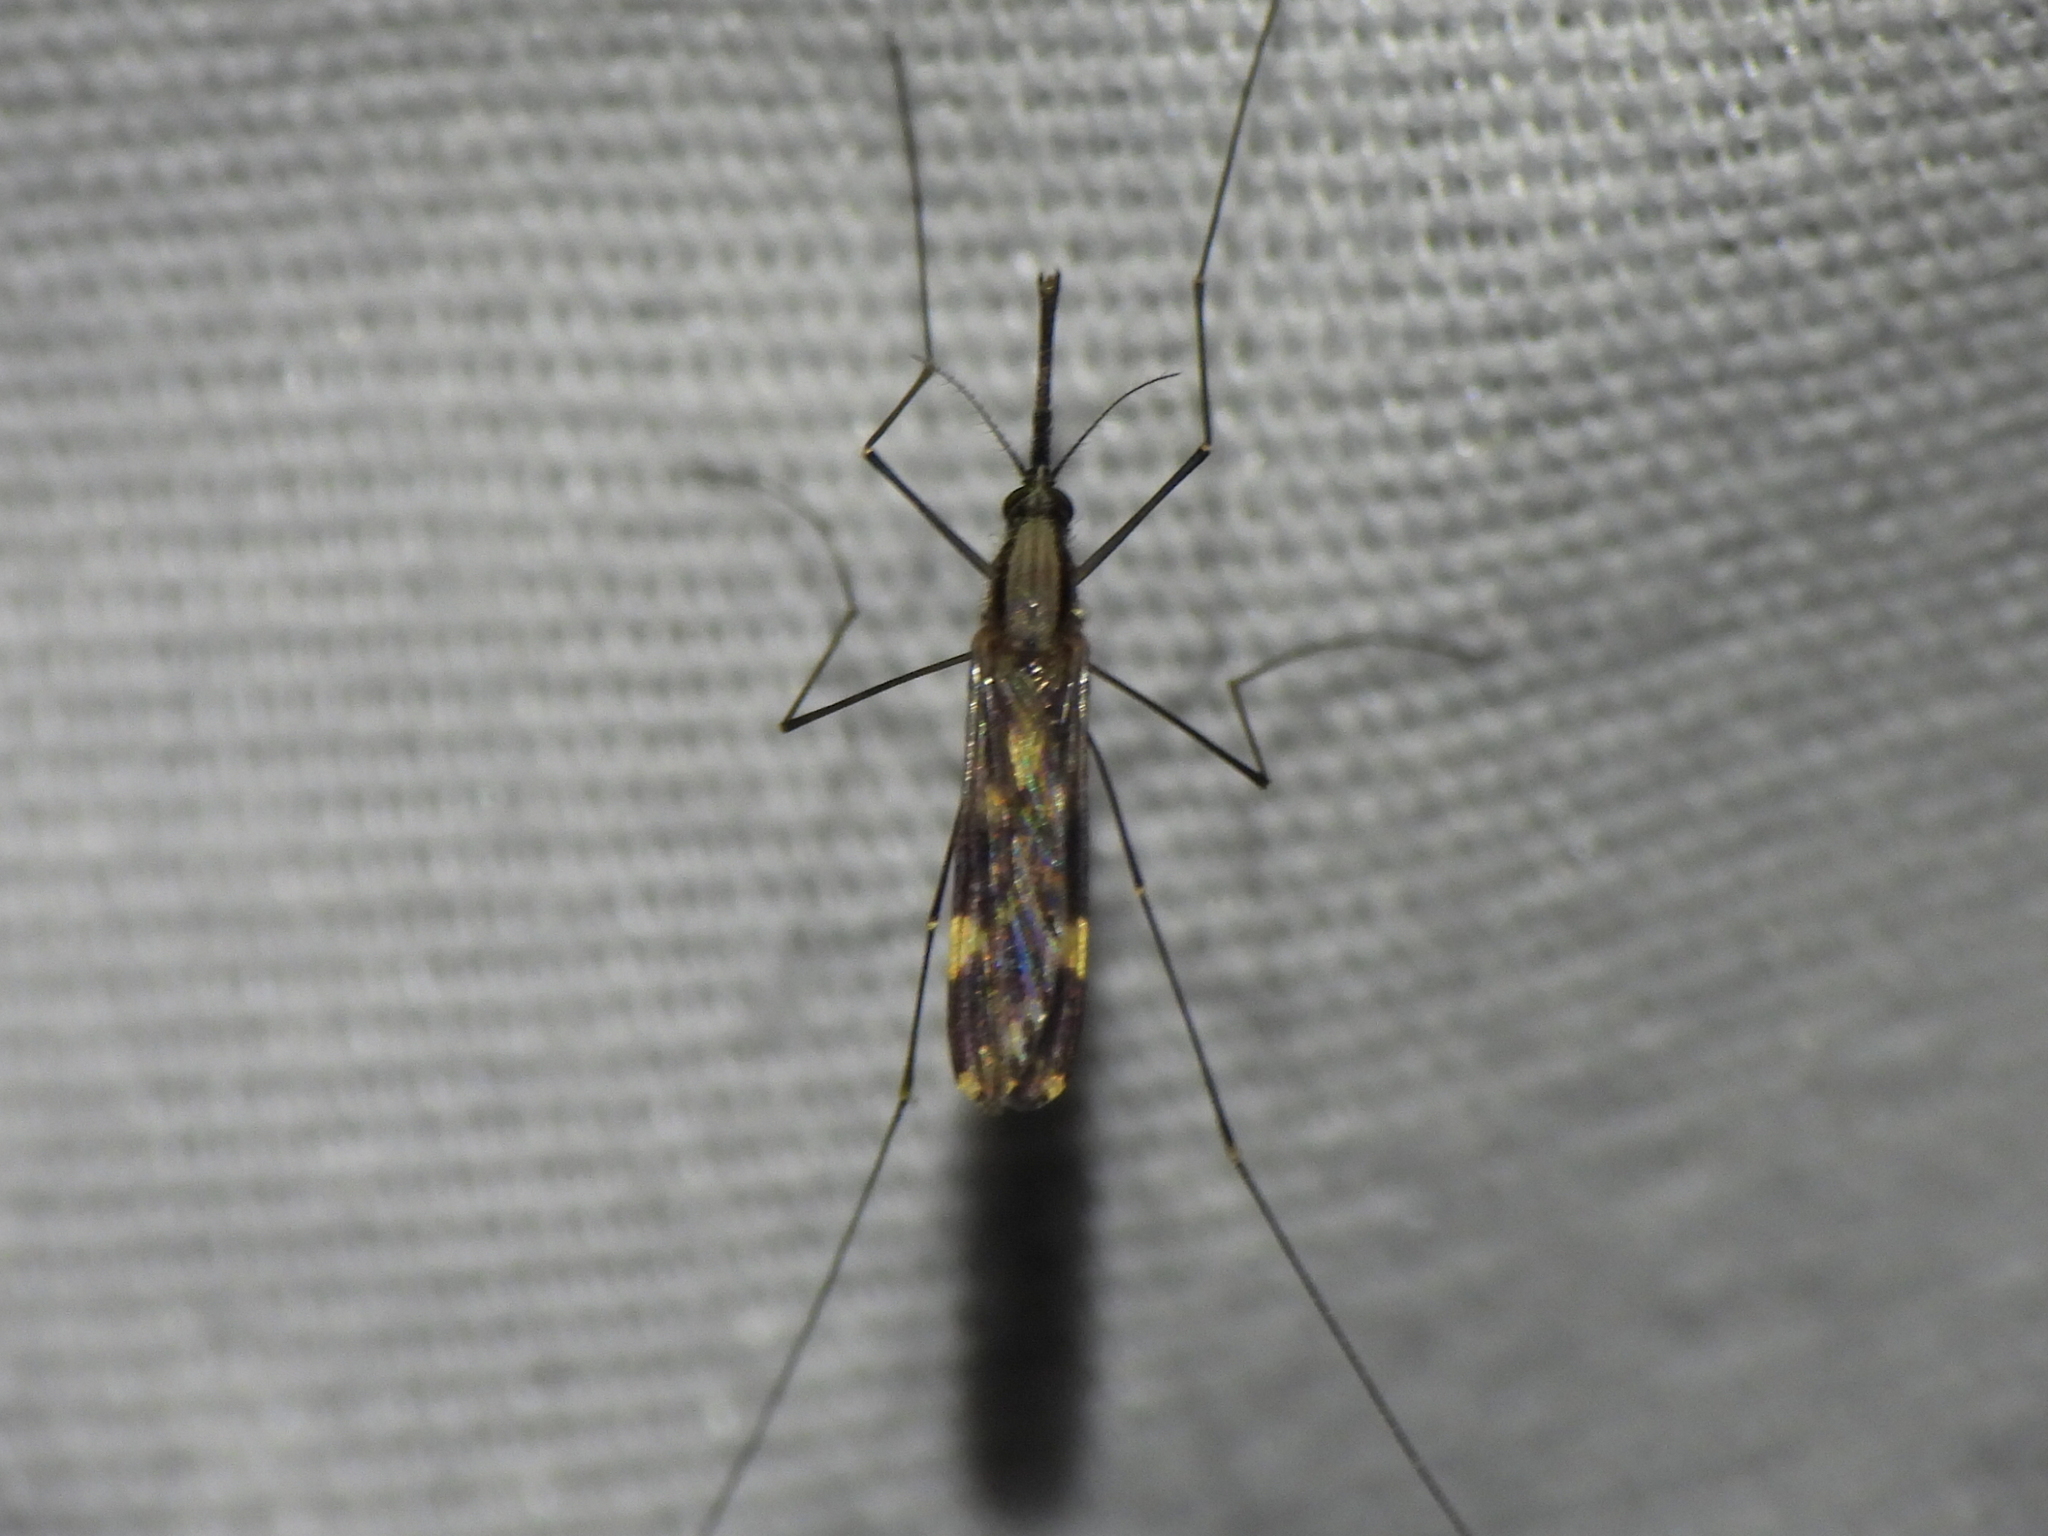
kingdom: Animalia
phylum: Arthropoda
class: Insecta
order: Diptera
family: Culicidae
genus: Anopheles
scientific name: Anopheles punctipennis
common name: Woodland malaria mosquito
